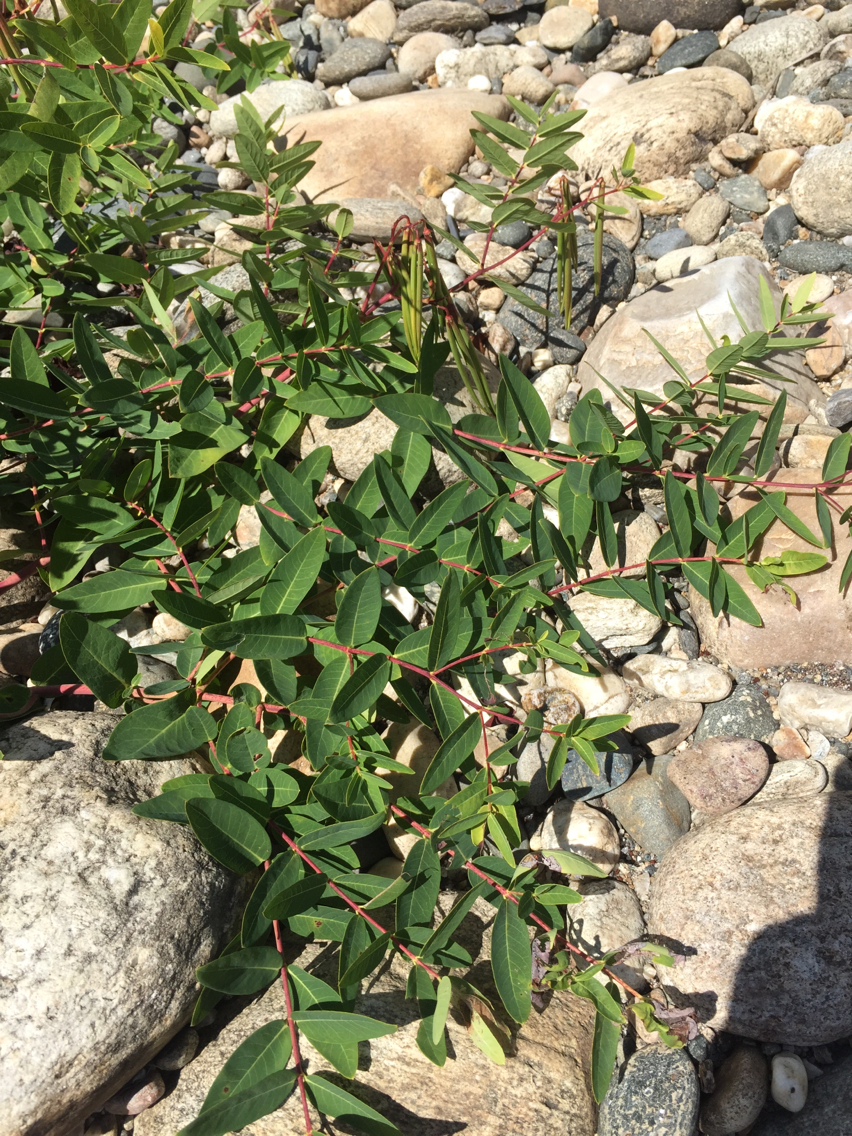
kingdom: Plantae
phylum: Tracheophyta
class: Magnoliopsida
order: Gentianales
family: Apocynaceae
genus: Apocynum
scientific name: Apocynum androsaemifolium
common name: Spreading dogbane
